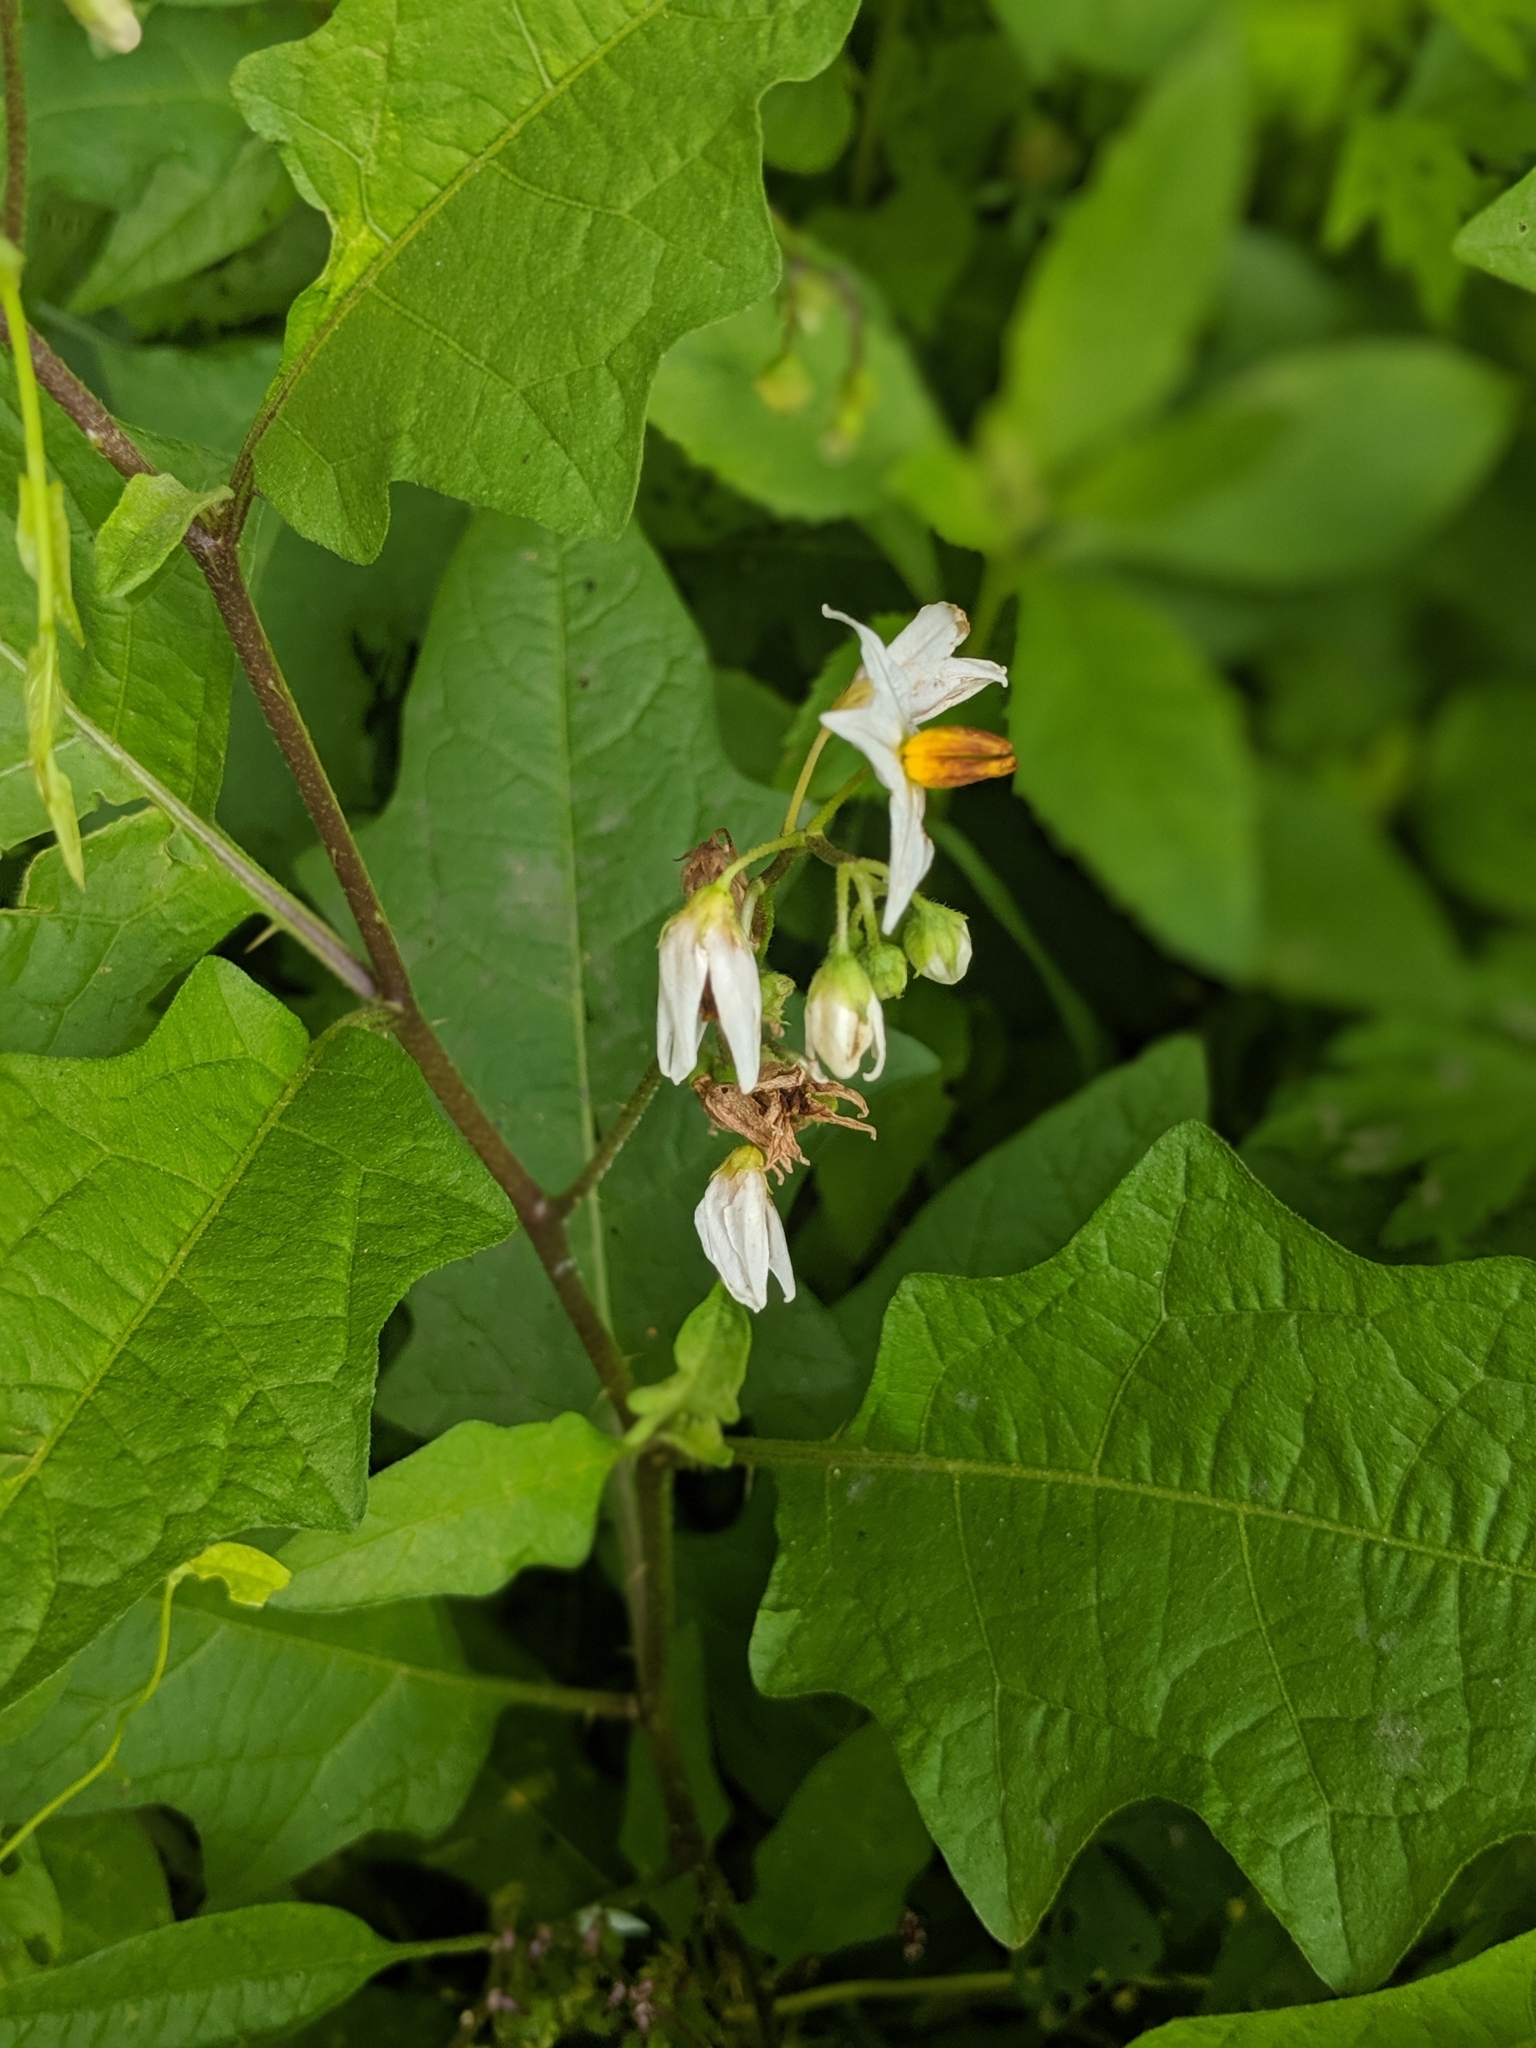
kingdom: Plantae
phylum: Tracheophyta
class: Magnoliopsida
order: Solanales
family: Solanaceae
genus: Solanum
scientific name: Solanum carolinense
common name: Horse-nettle
